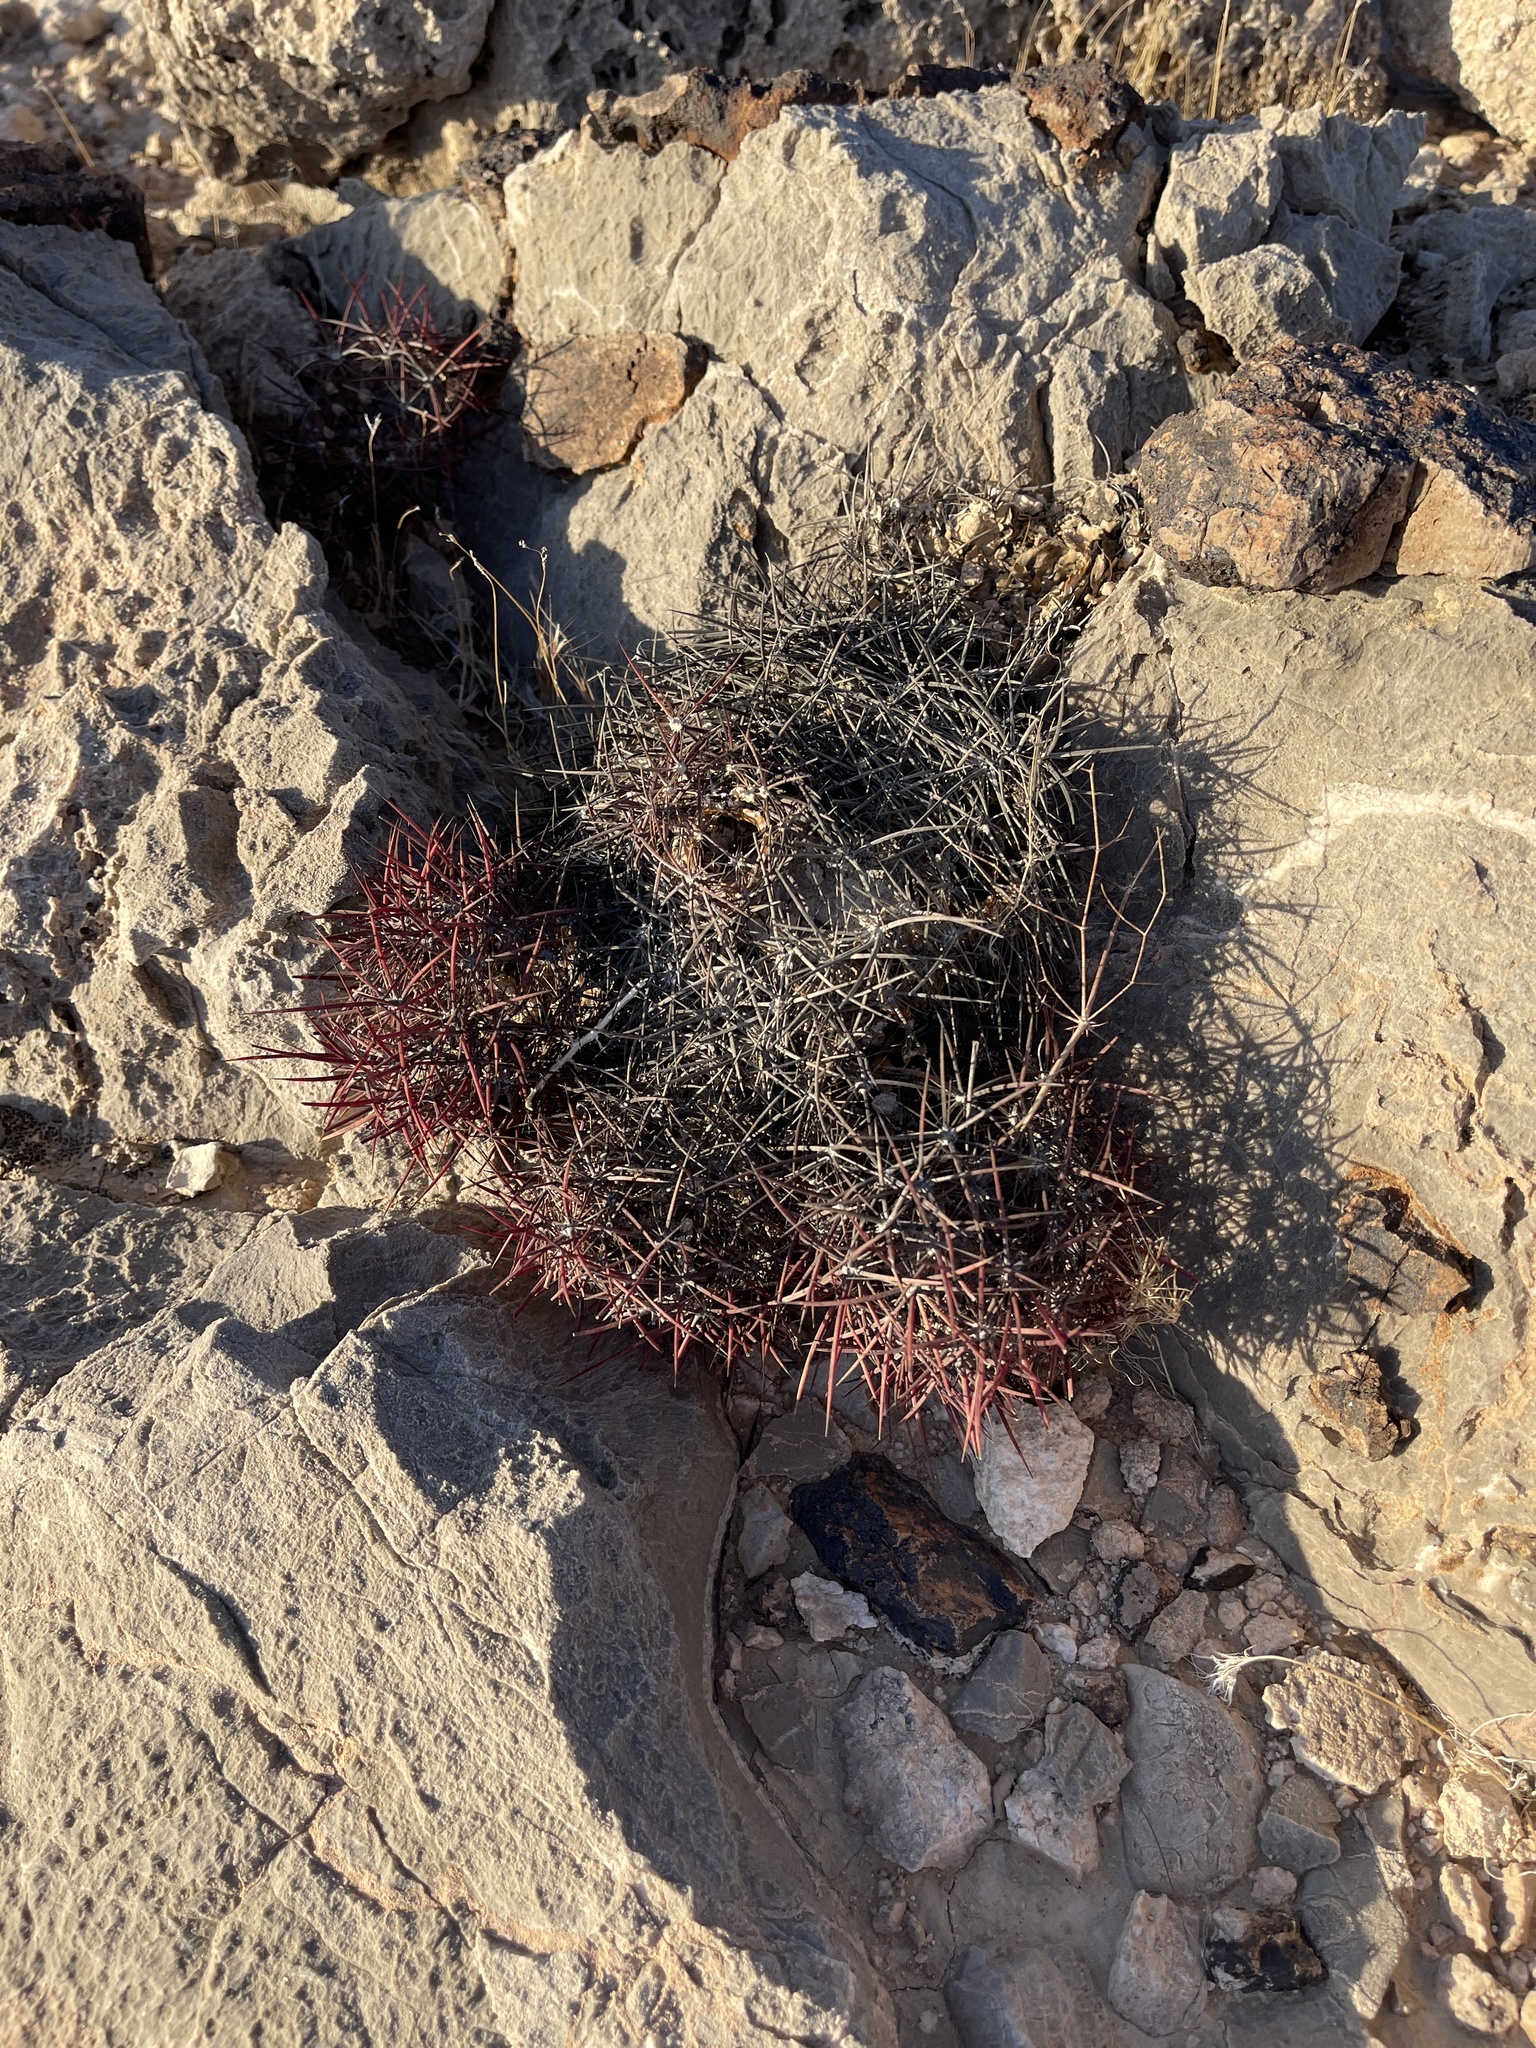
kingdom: Plantae
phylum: Tracheophyta
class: Magnoliopsida
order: Caryophyllales
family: Cactaceae
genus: Sclerocactus
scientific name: Sclerocactus johnsonii
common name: Eight-spine fishhook cactus
